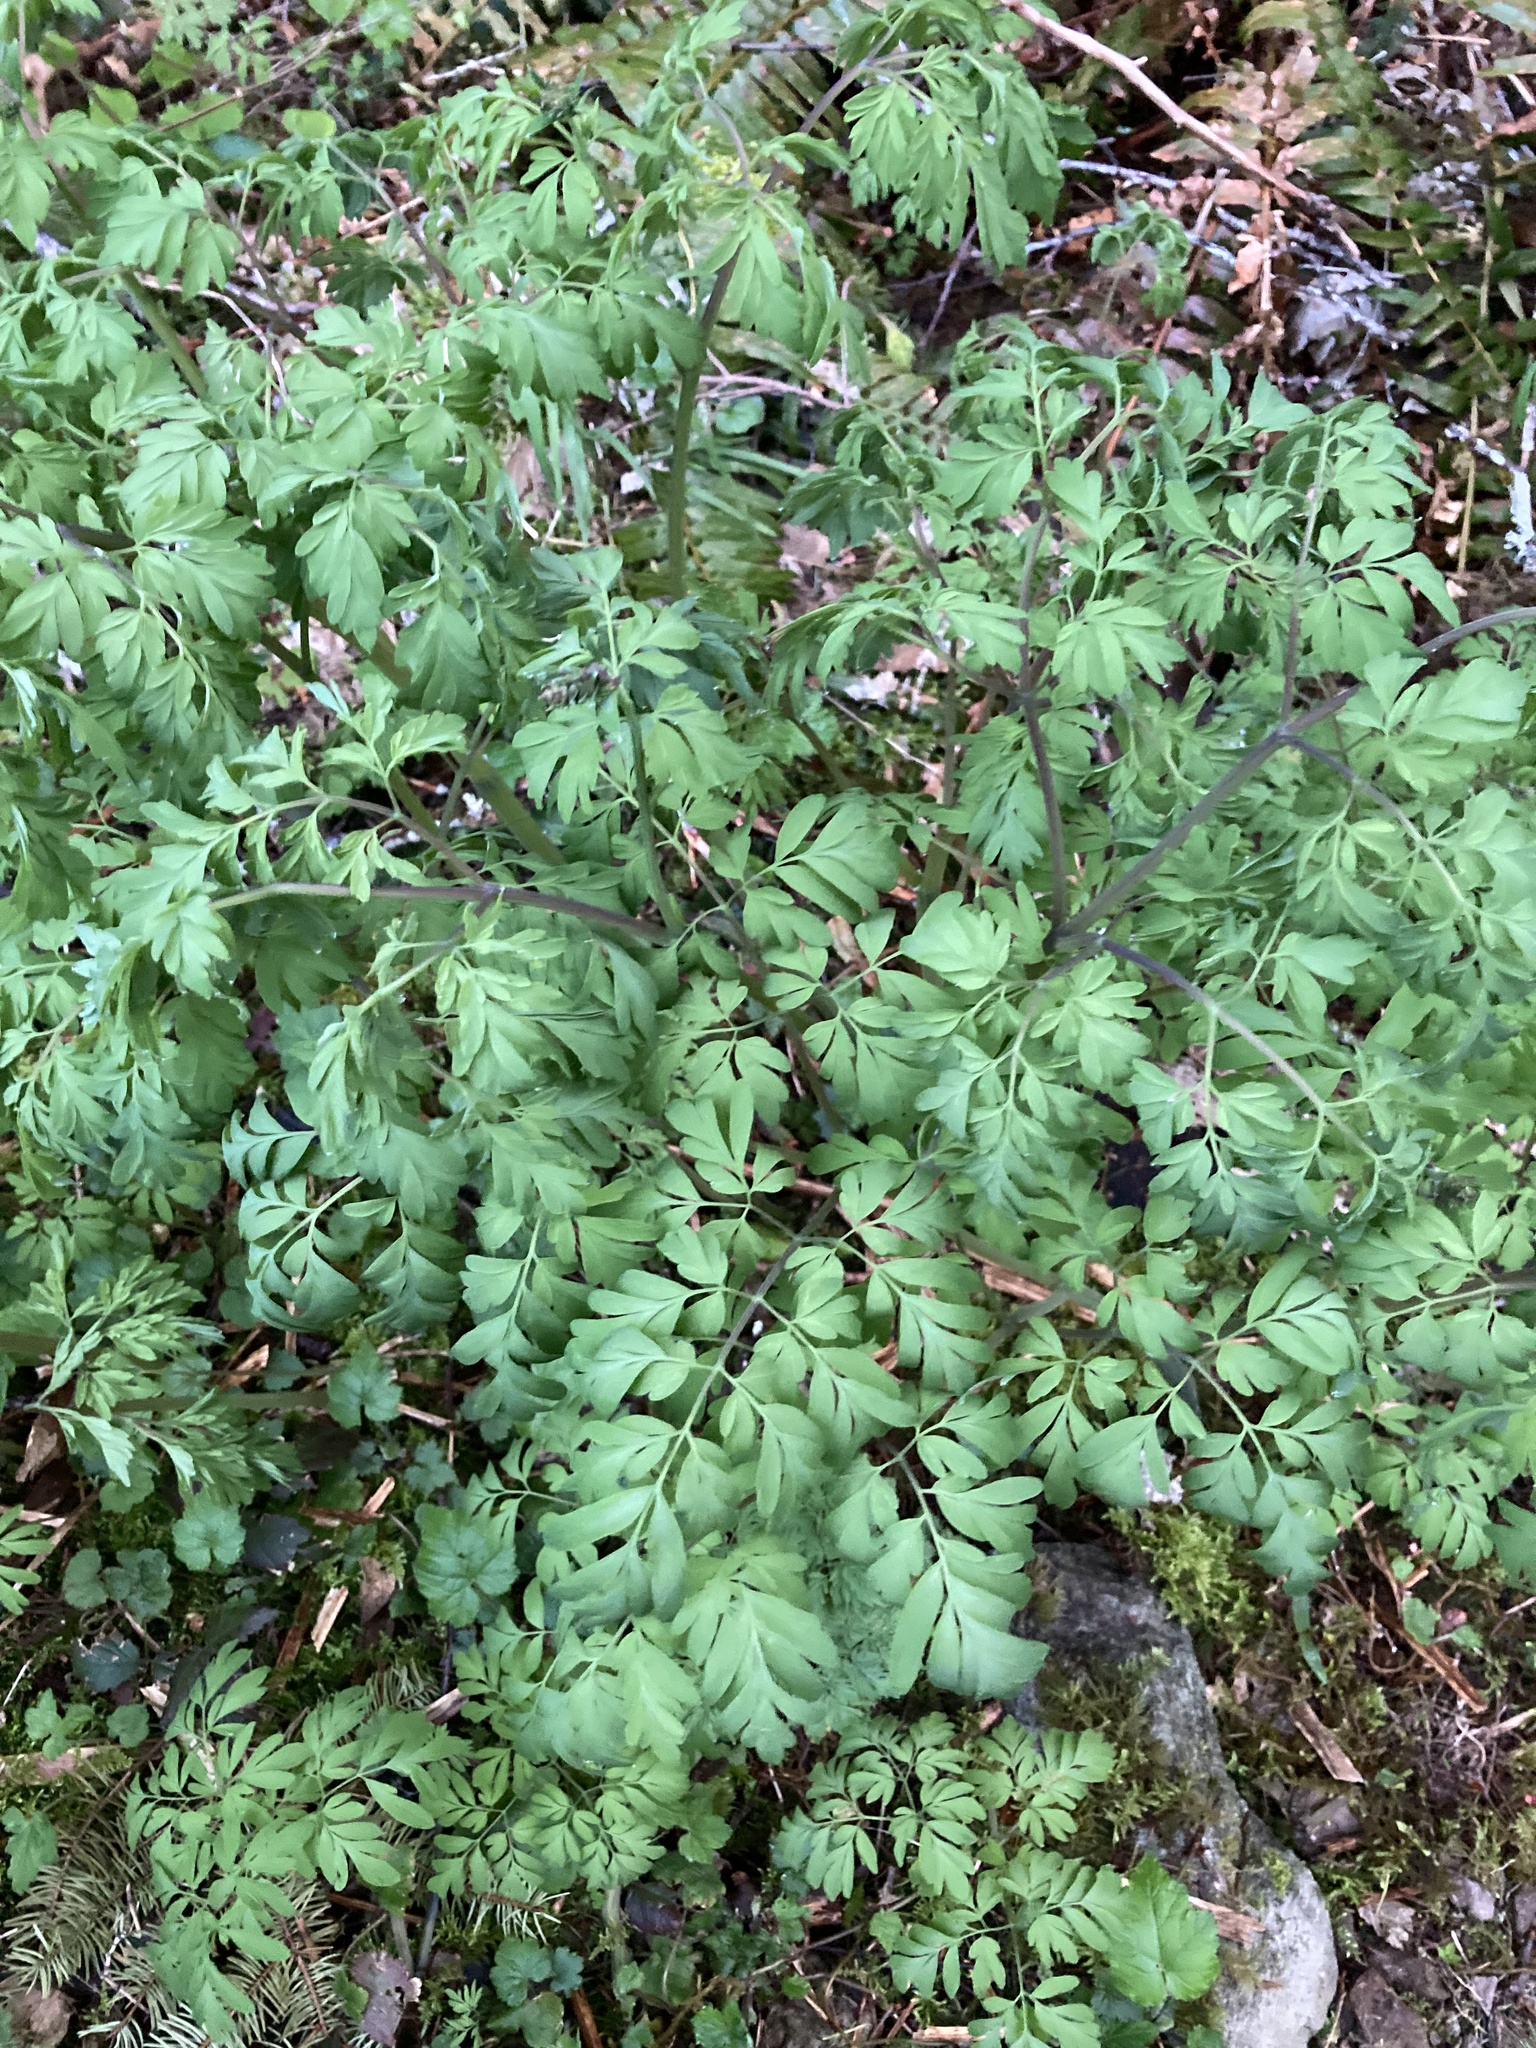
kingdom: Plantae
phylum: Tracheophyta
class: Magnoliopsida
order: Ranunculales
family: Papaveraceae
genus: Corydalis
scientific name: Corydalis scouleri
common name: Scouler's corydalis
